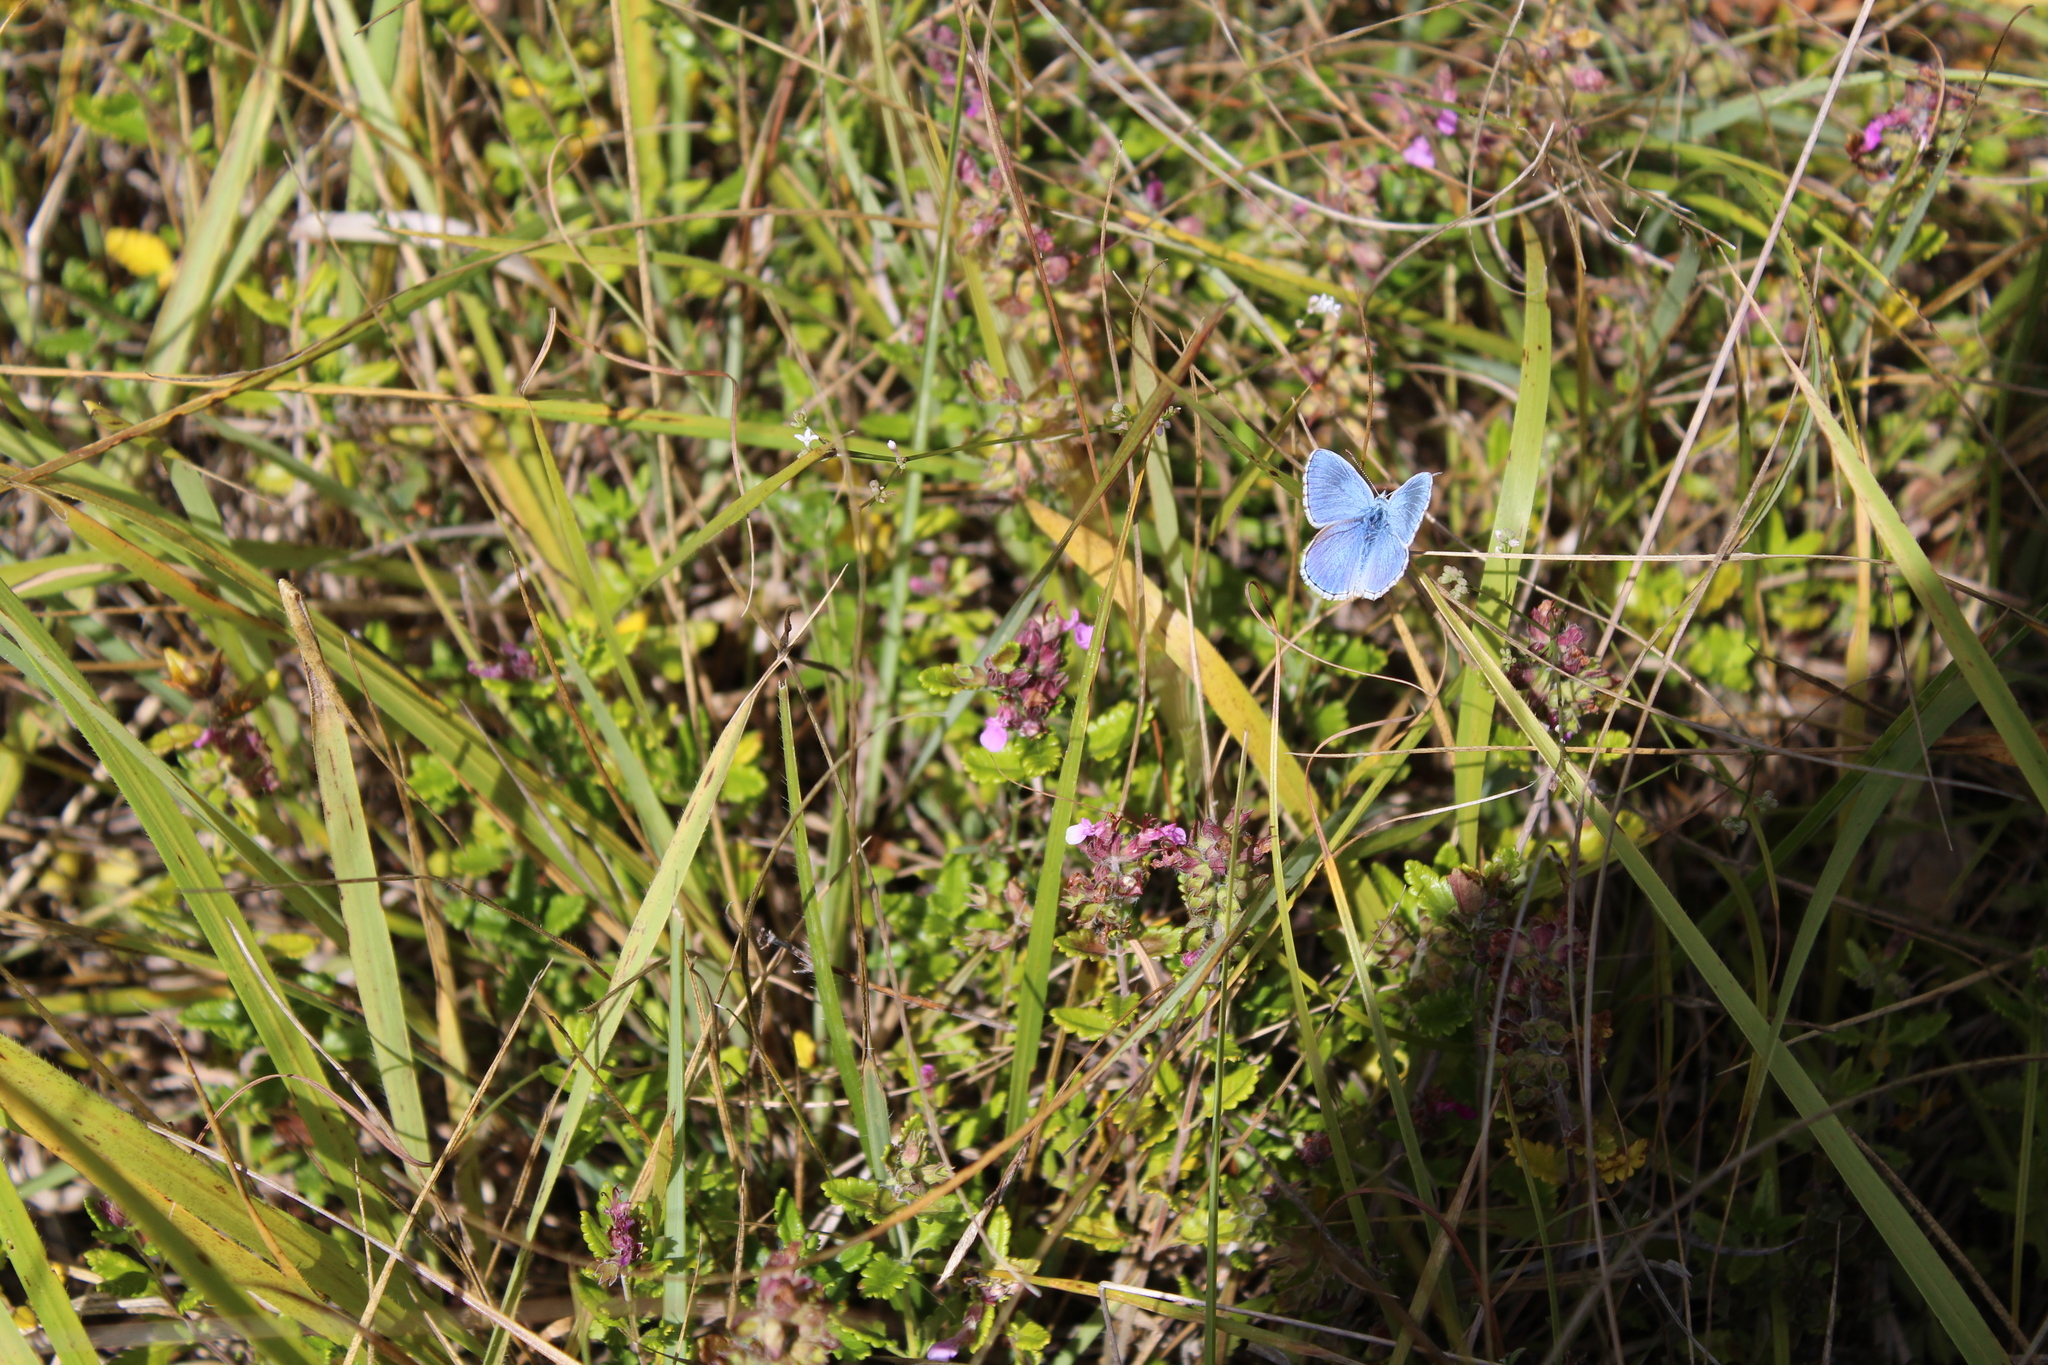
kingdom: Animalia
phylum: Arthropoda
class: Insecta
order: Lepidoptera
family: Lycaenidae
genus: Lysandra
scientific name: Lysandra bellargus
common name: Adonis blue
